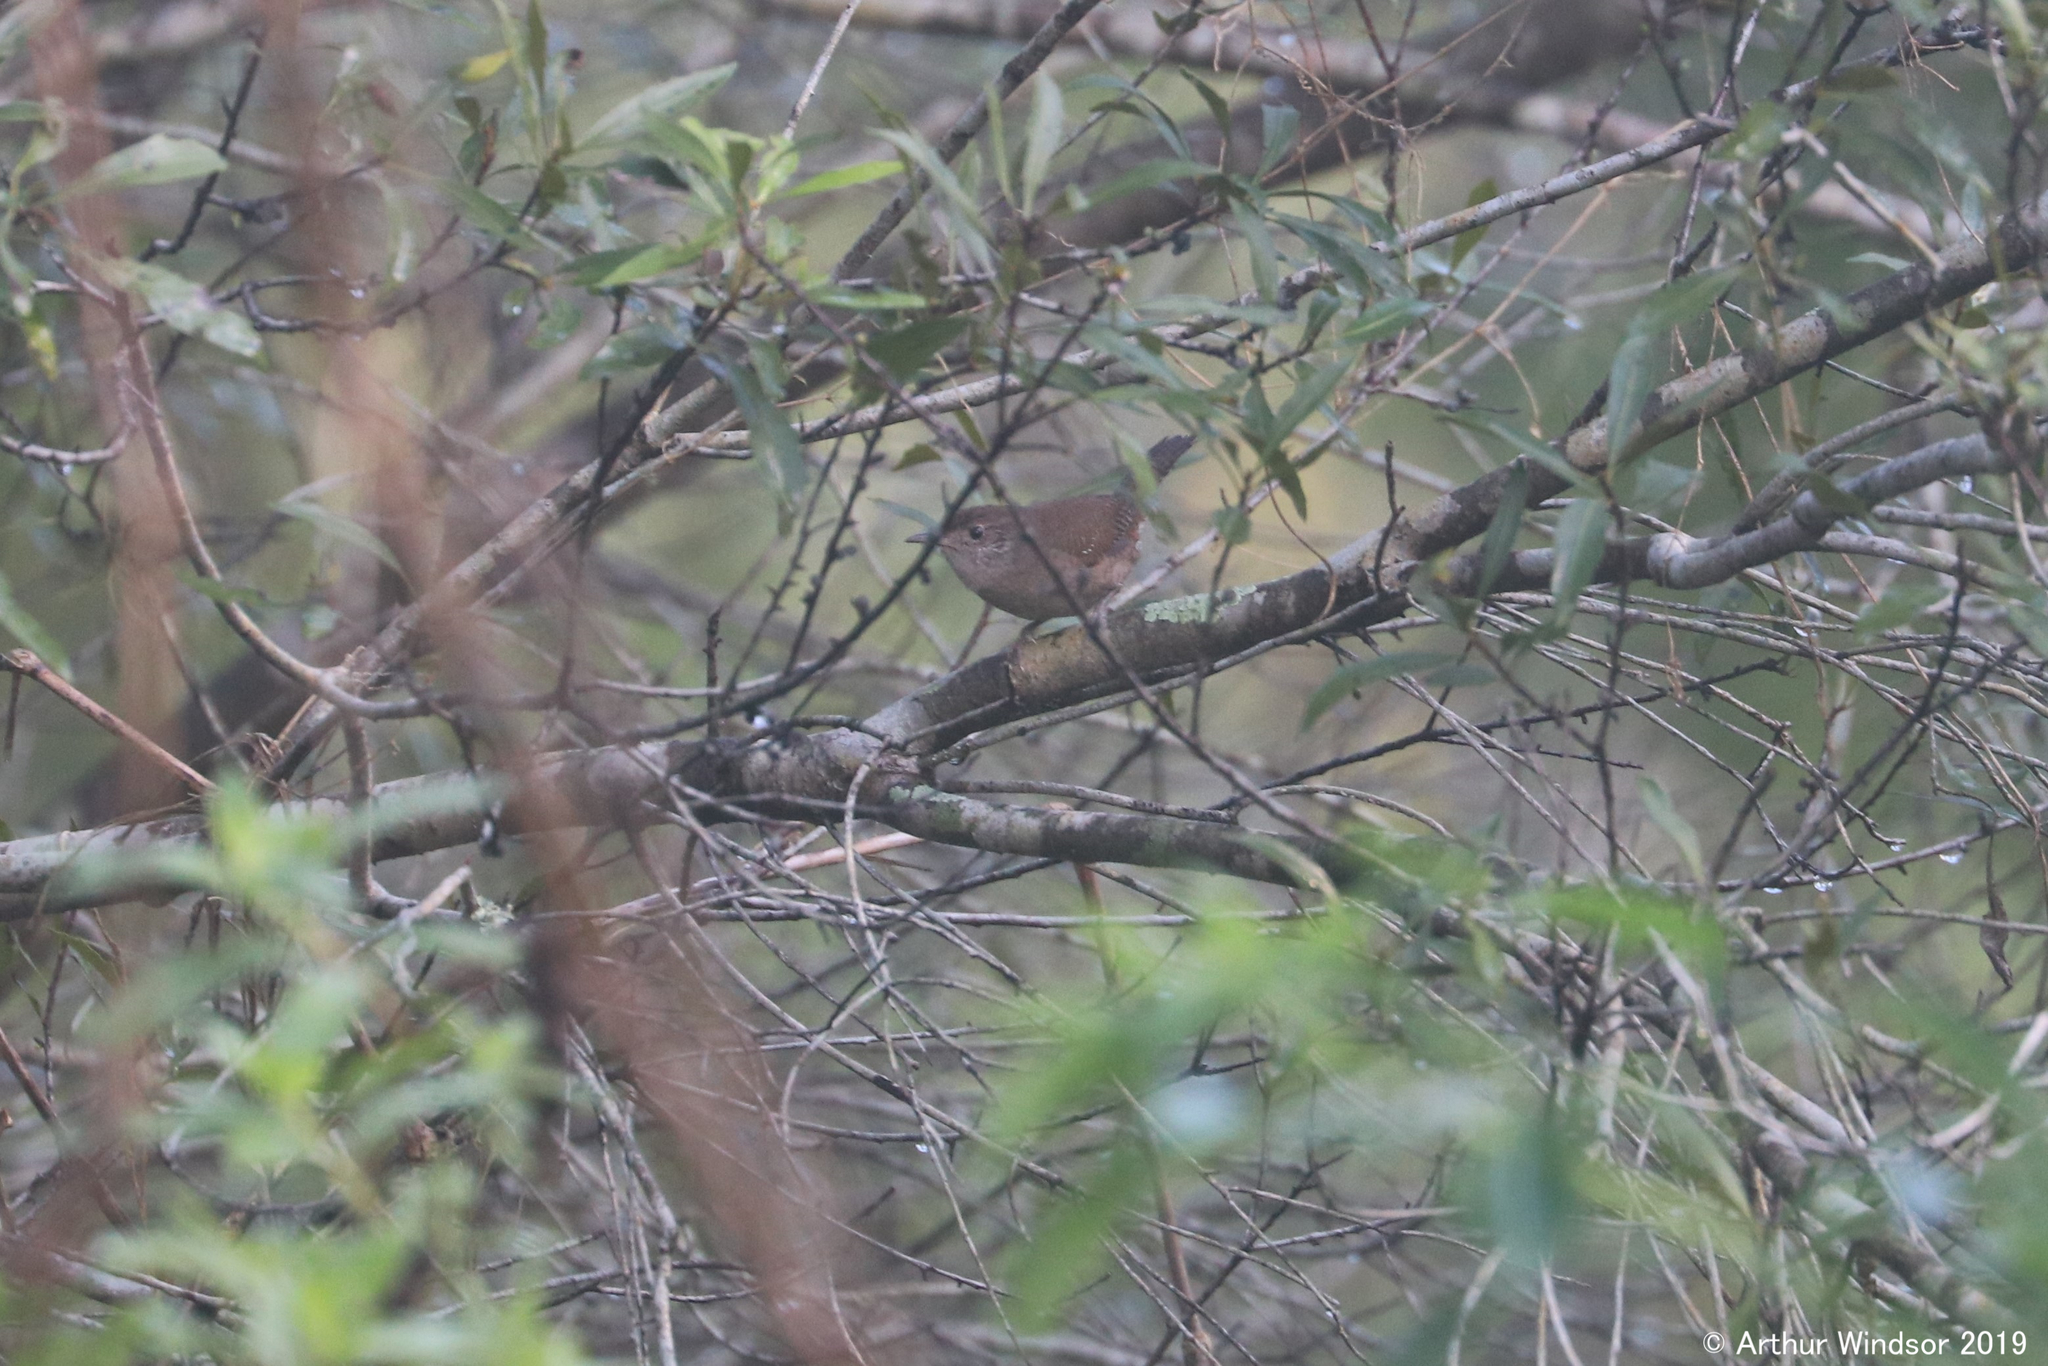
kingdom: Animalia
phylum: Chordata
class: Aves
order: Passeriformes
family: Troglodytidae
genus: Troglodytes
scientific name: Troglodytes aedon
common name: House wren
